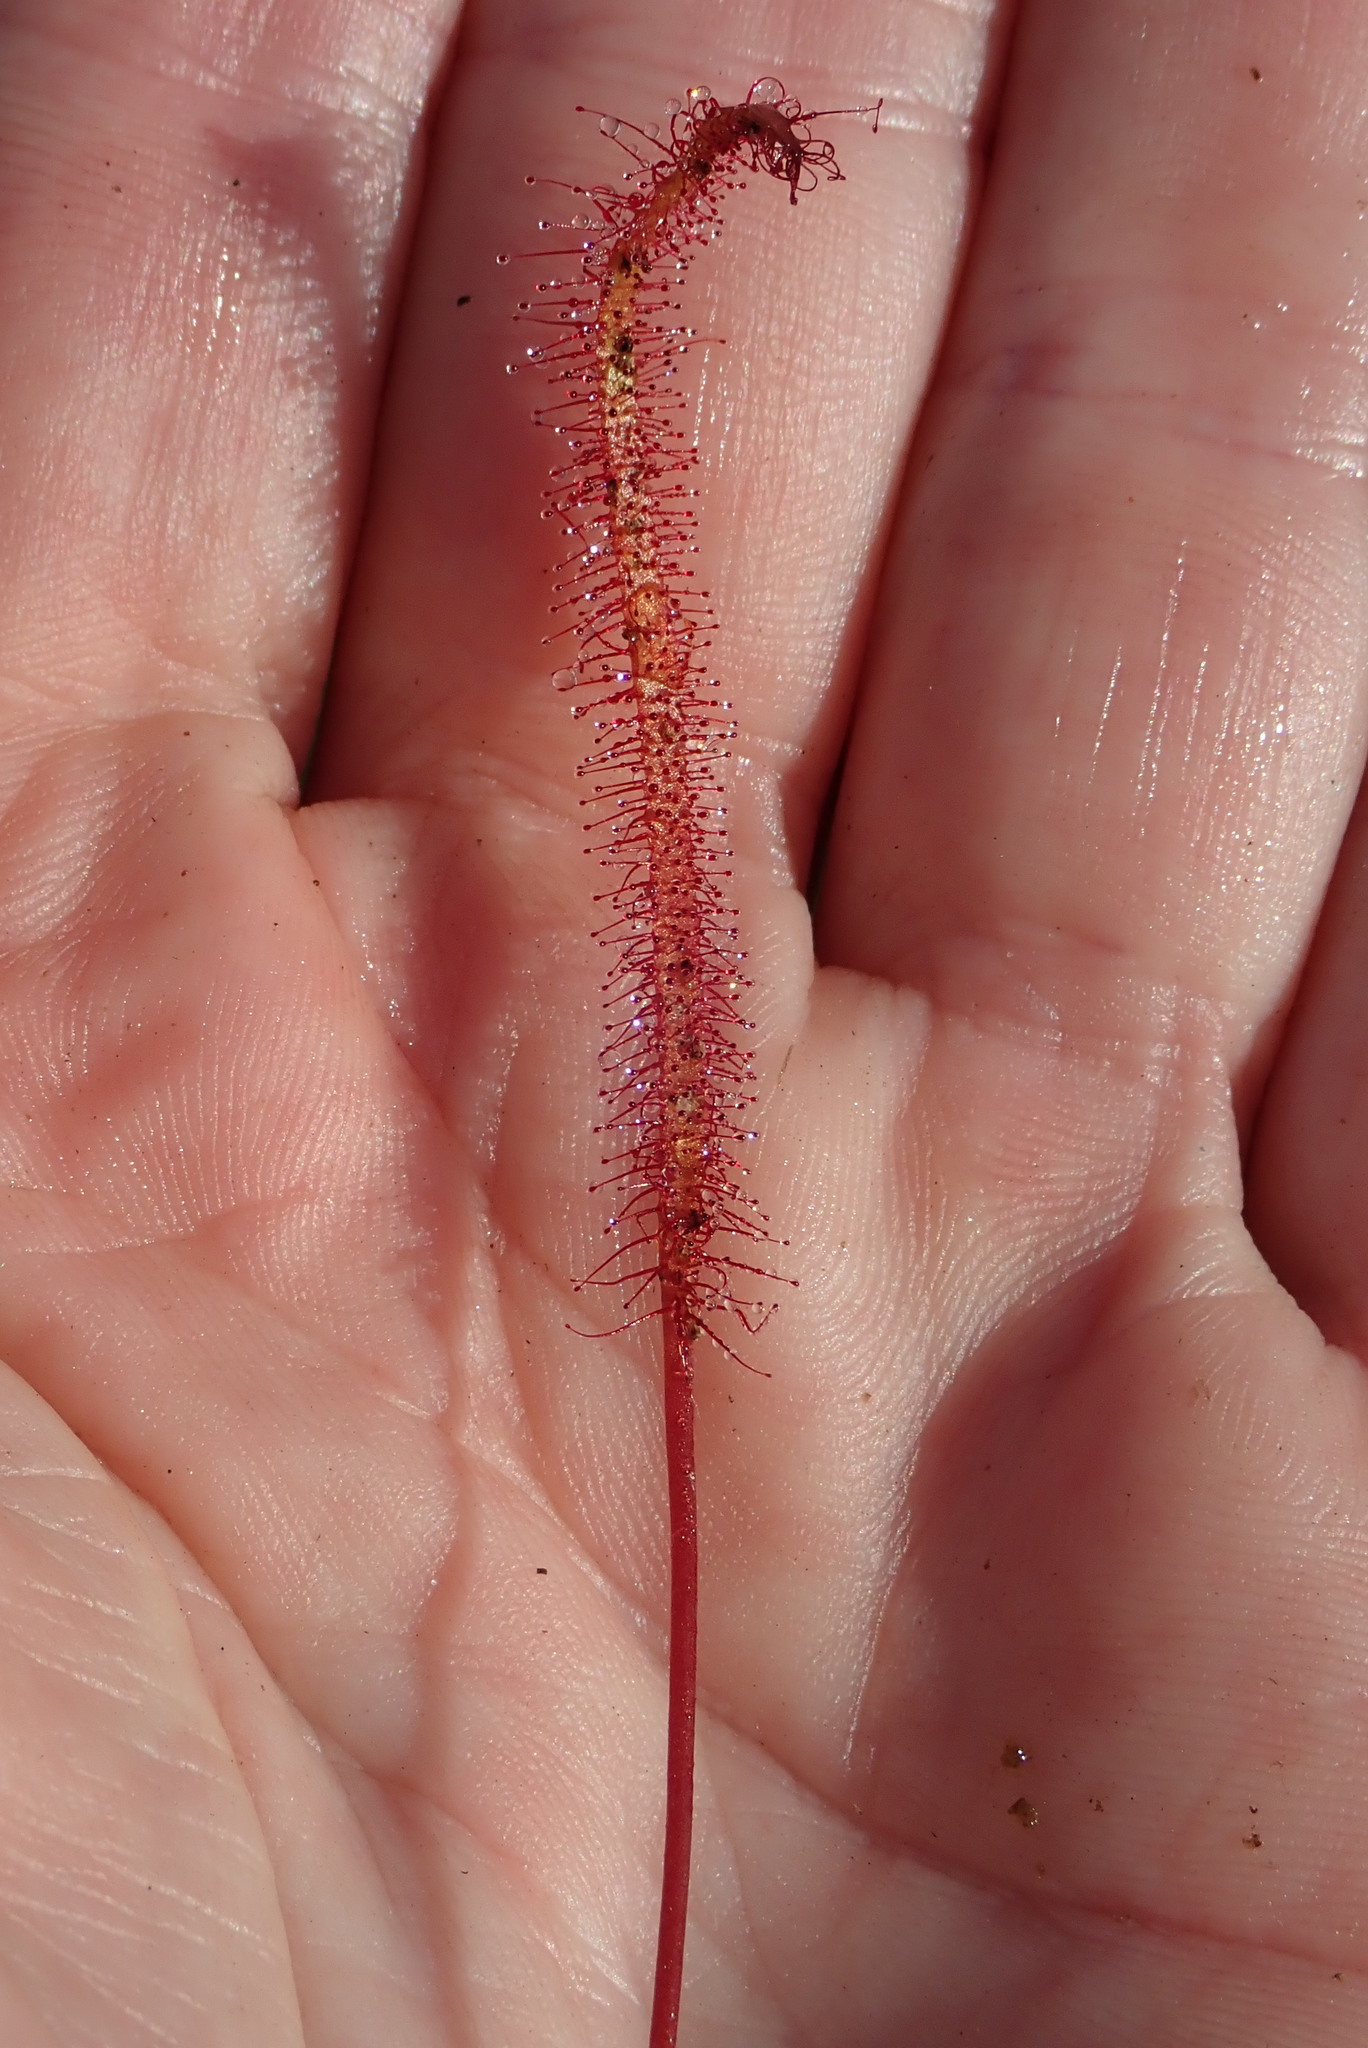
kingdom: Plantae
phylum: Tracheophyta
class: Magnoliopsida
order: Caryophyllales
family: Droseraceae
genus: Drosera
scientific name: Drosera linearis
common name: Linear-leaved sundew
